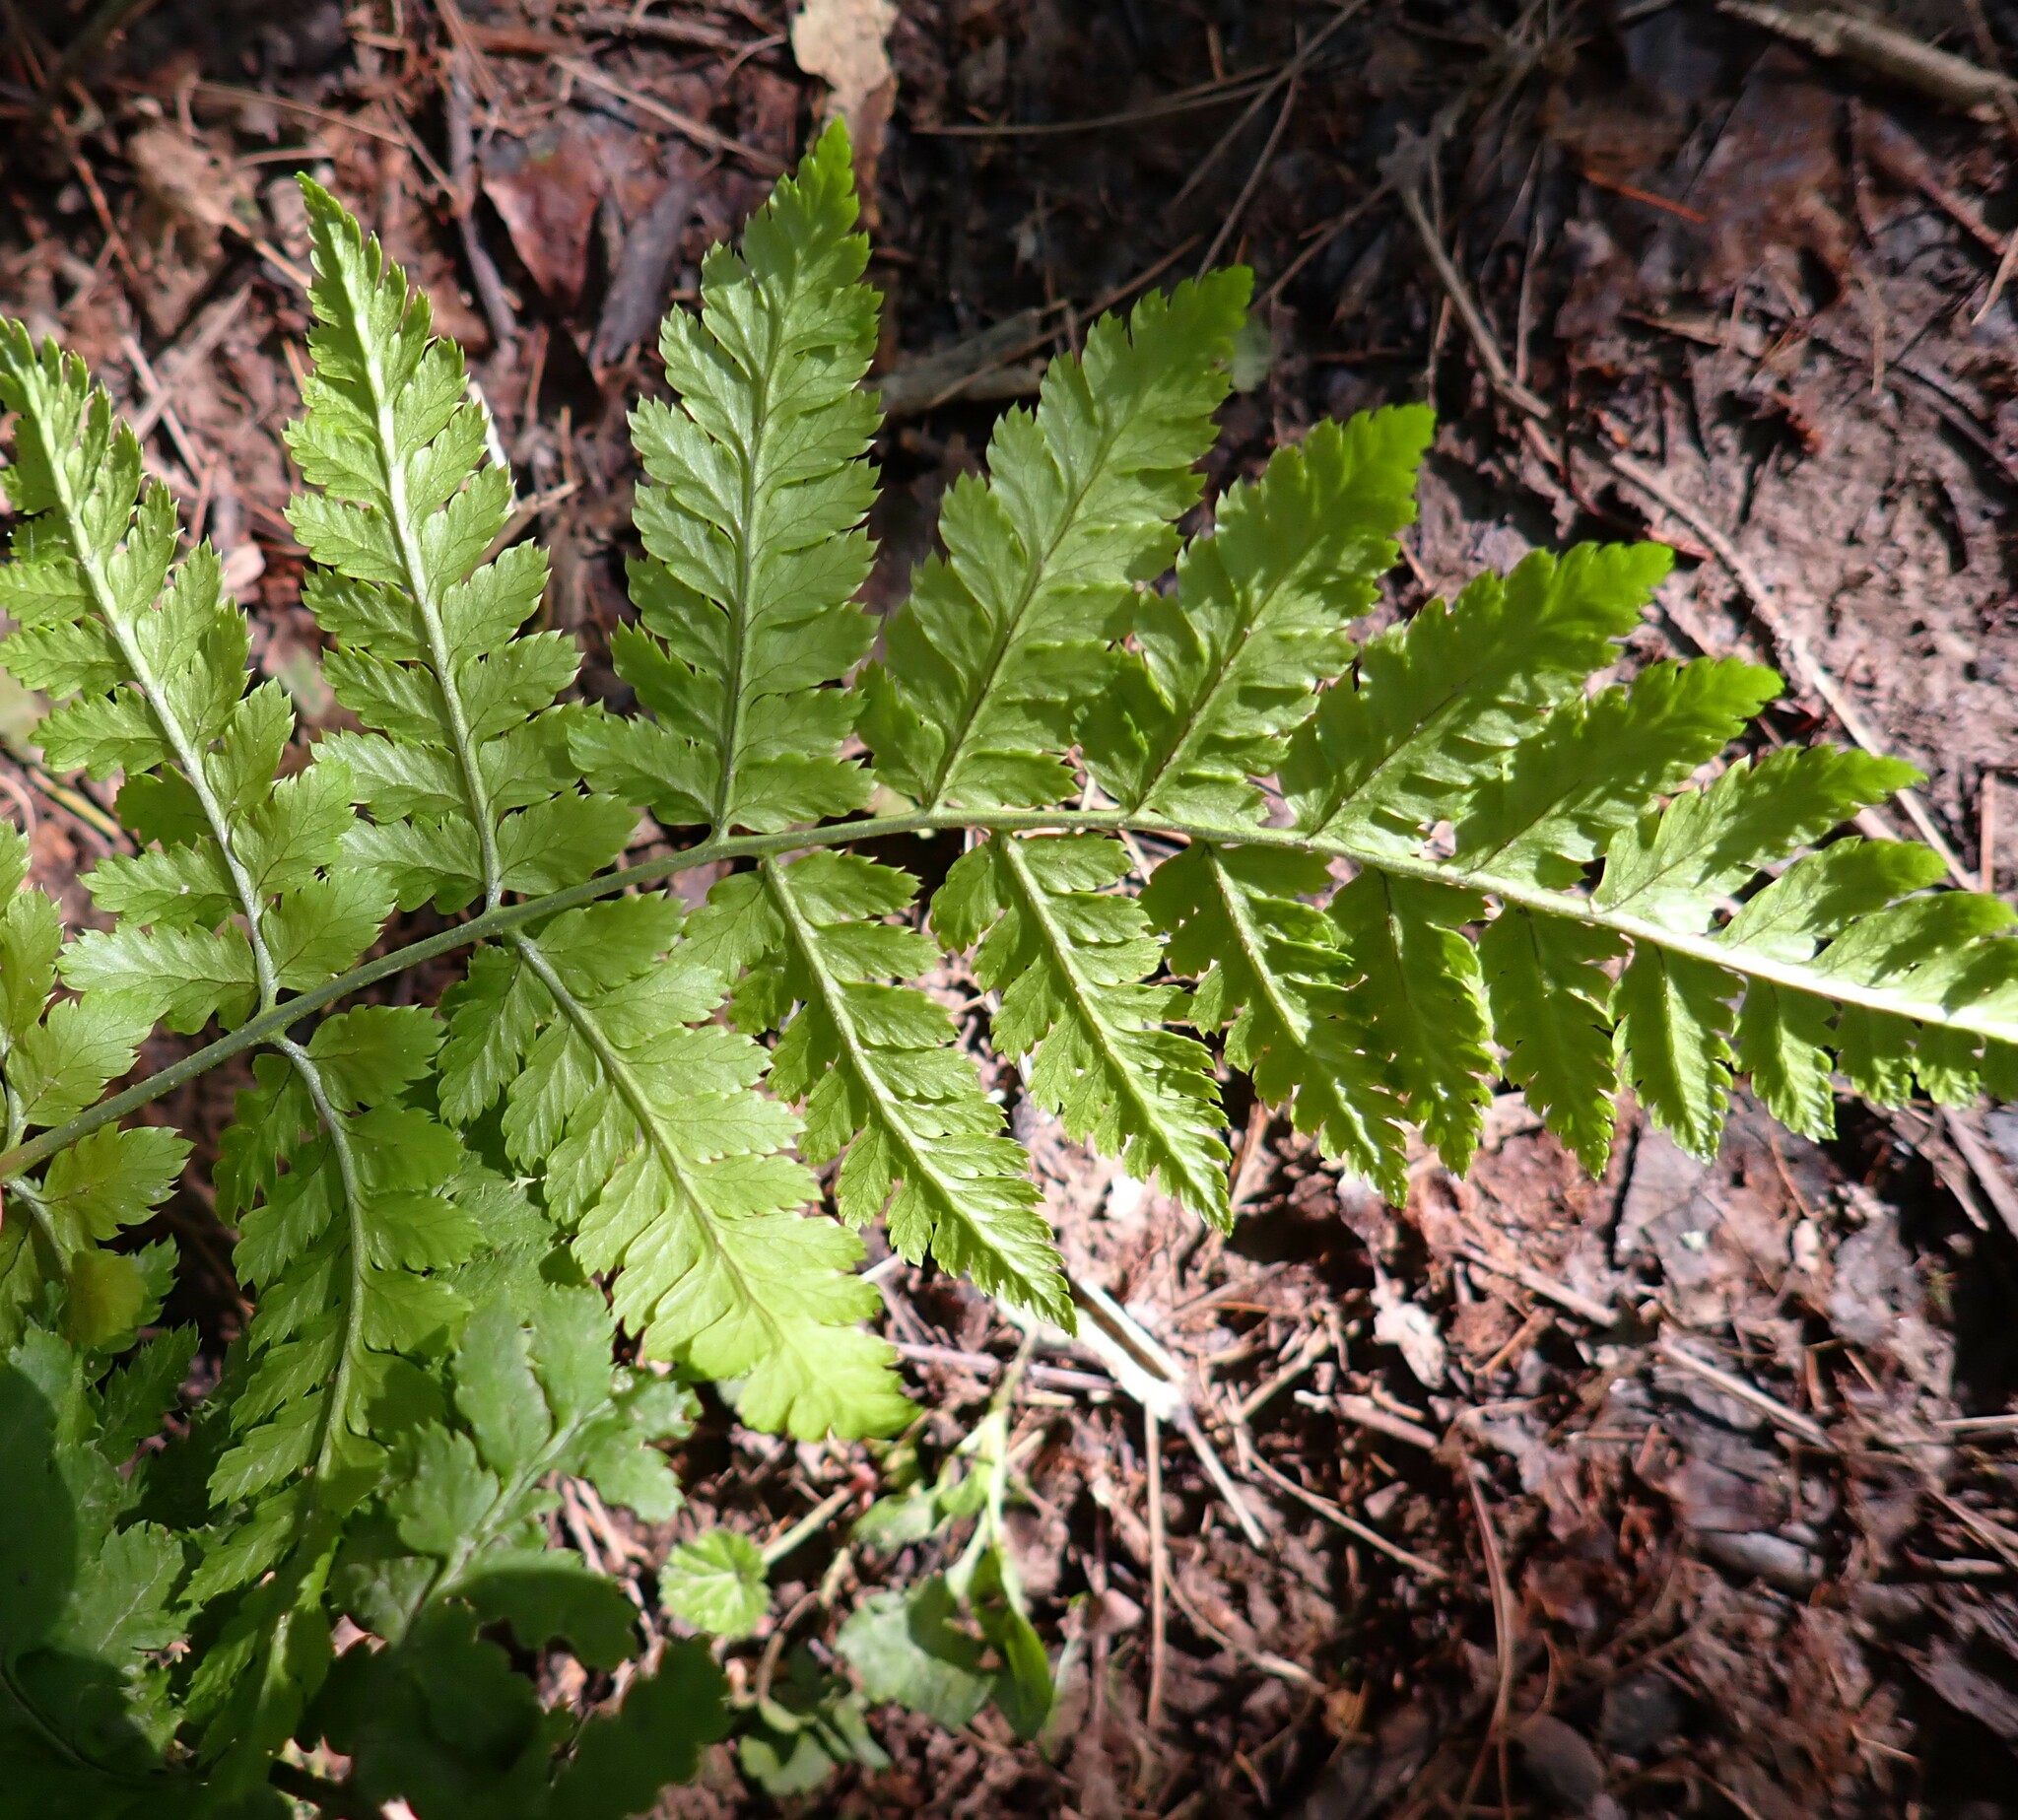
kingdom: Plantae
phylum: Tracheophyta
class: Polypodiopsida
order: Polypodiales
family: Dryopteridaceae
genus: Dryopteris
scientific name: Dryopteris intermedia
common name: Evergreen wood fern
